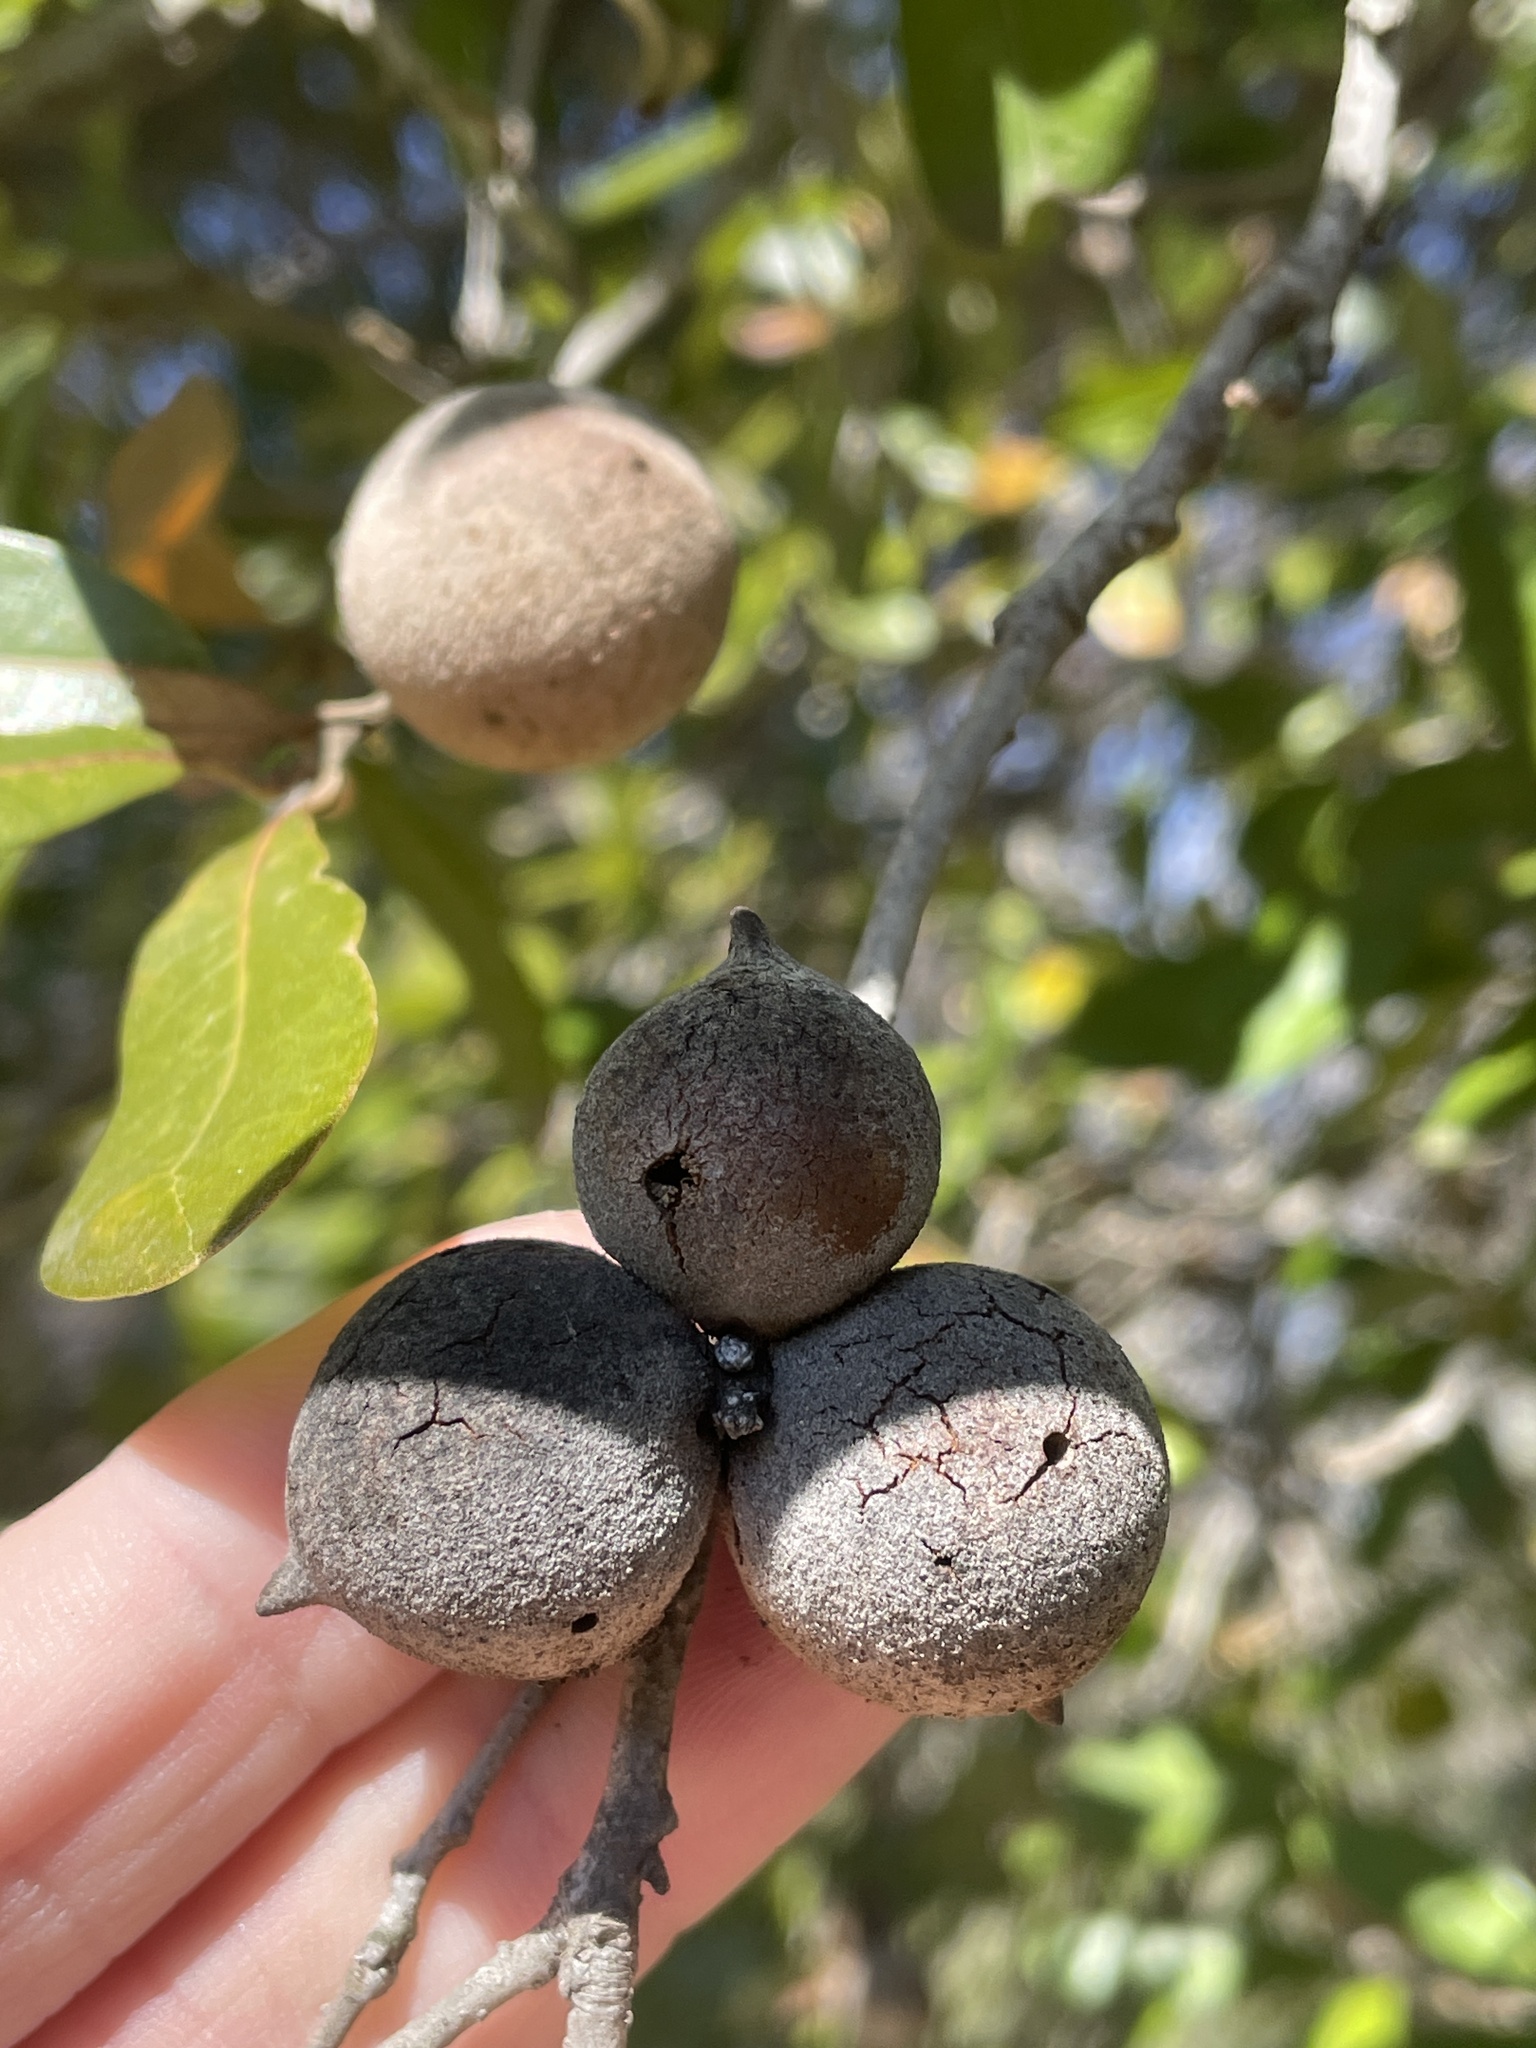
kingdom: Animalia
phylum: Arthropoda
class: Insecta
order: Hymenoptera
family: Cynipidae
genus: Disholcaspis
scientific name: Disholcaspis
